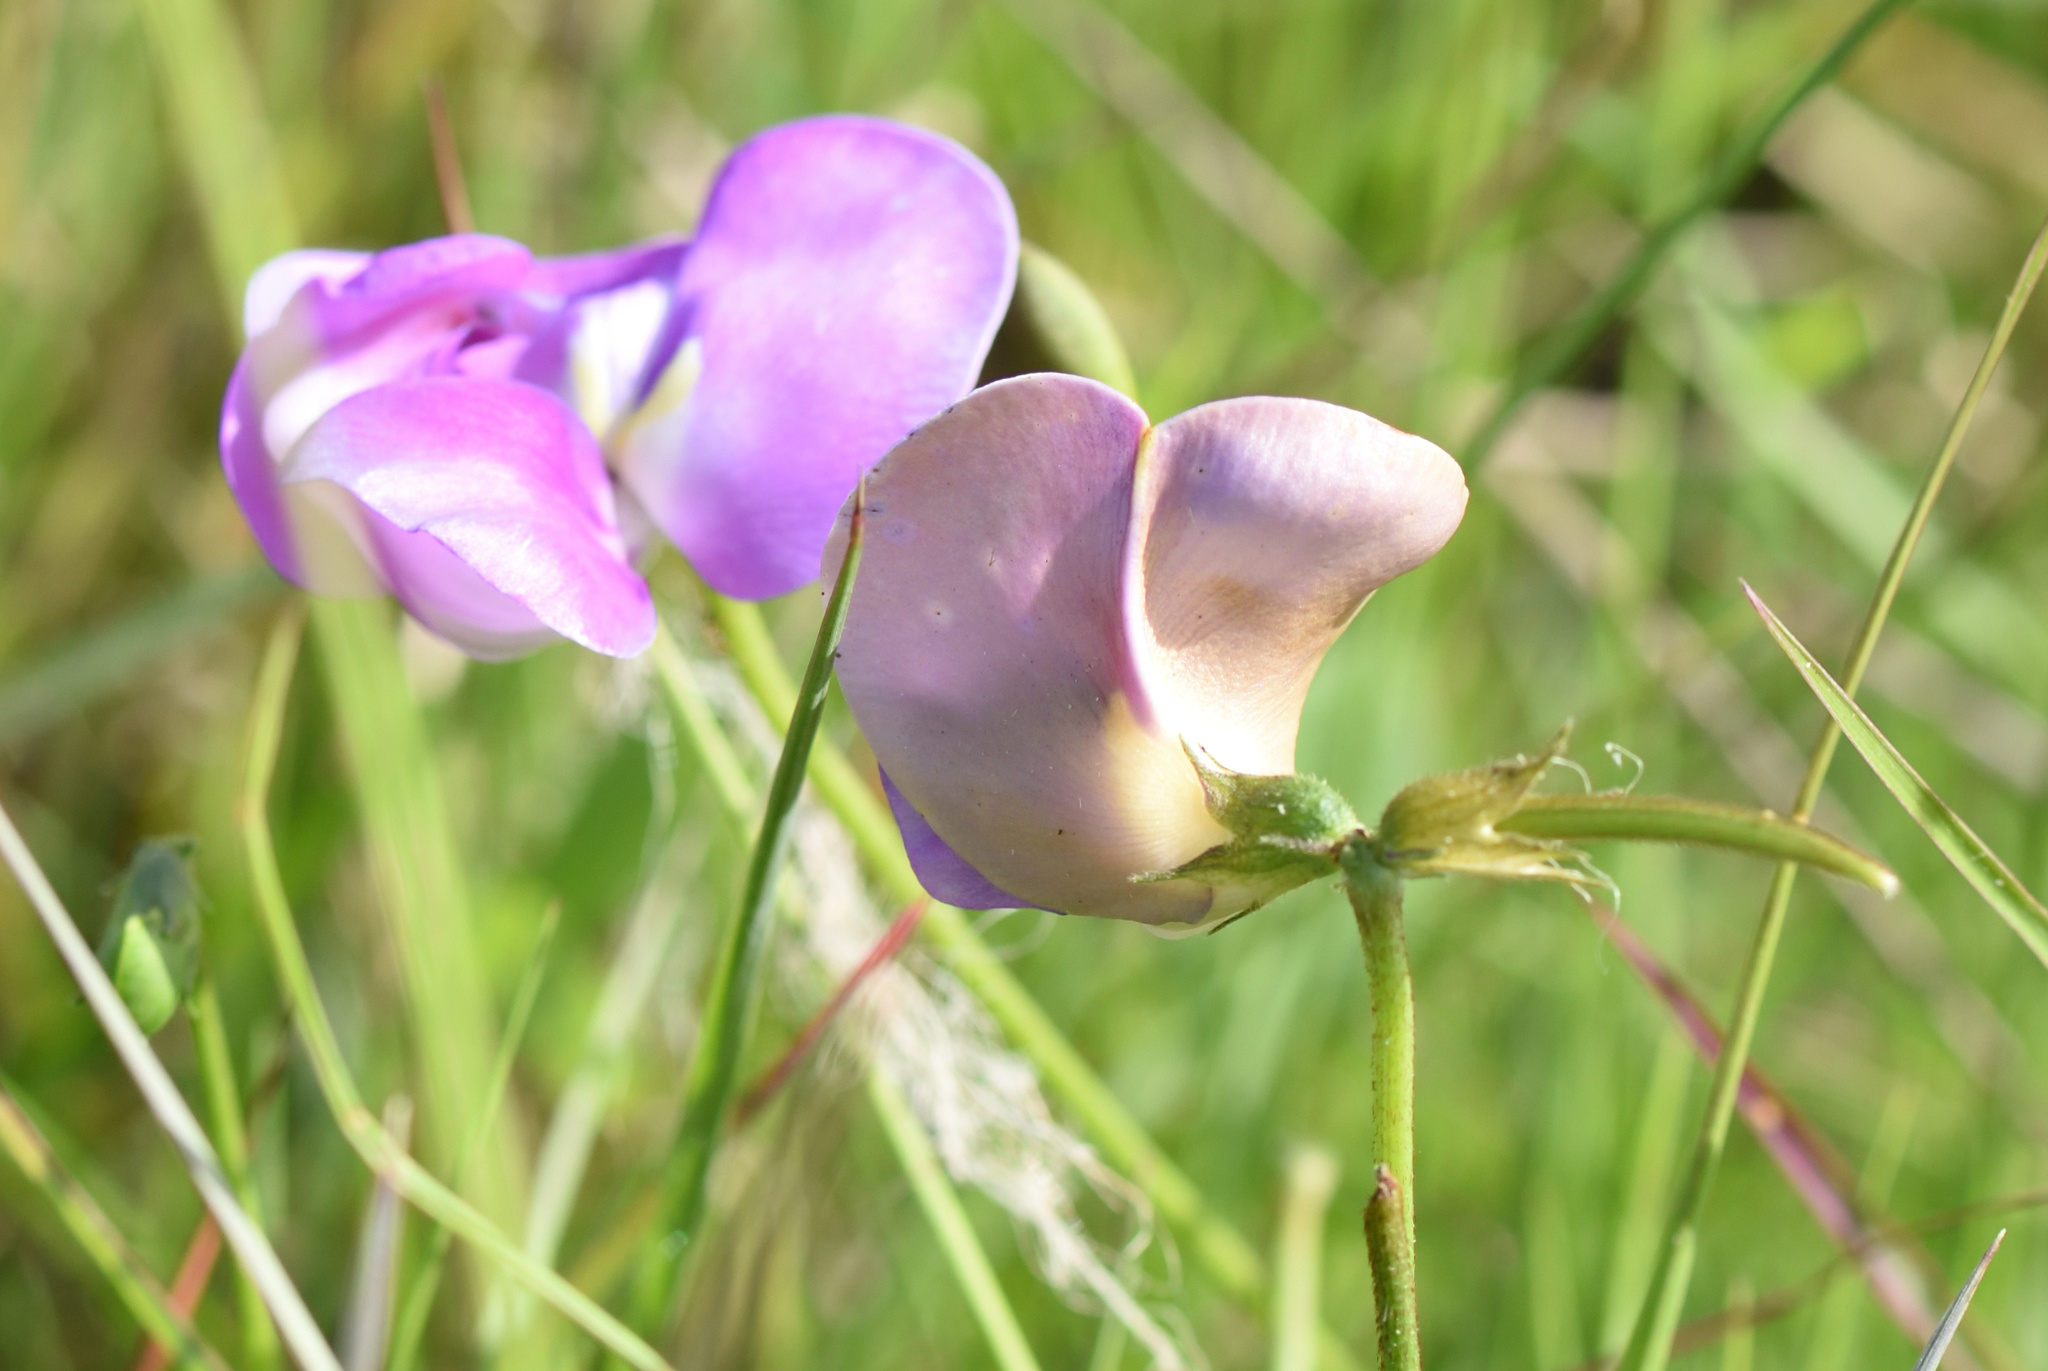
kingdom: Plantae
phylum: Tracheophyta
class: Magnoliopsida
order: Fabales
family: Fabaceae
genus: Vigna
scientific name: Vigna vexillata
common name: Zombi pea
